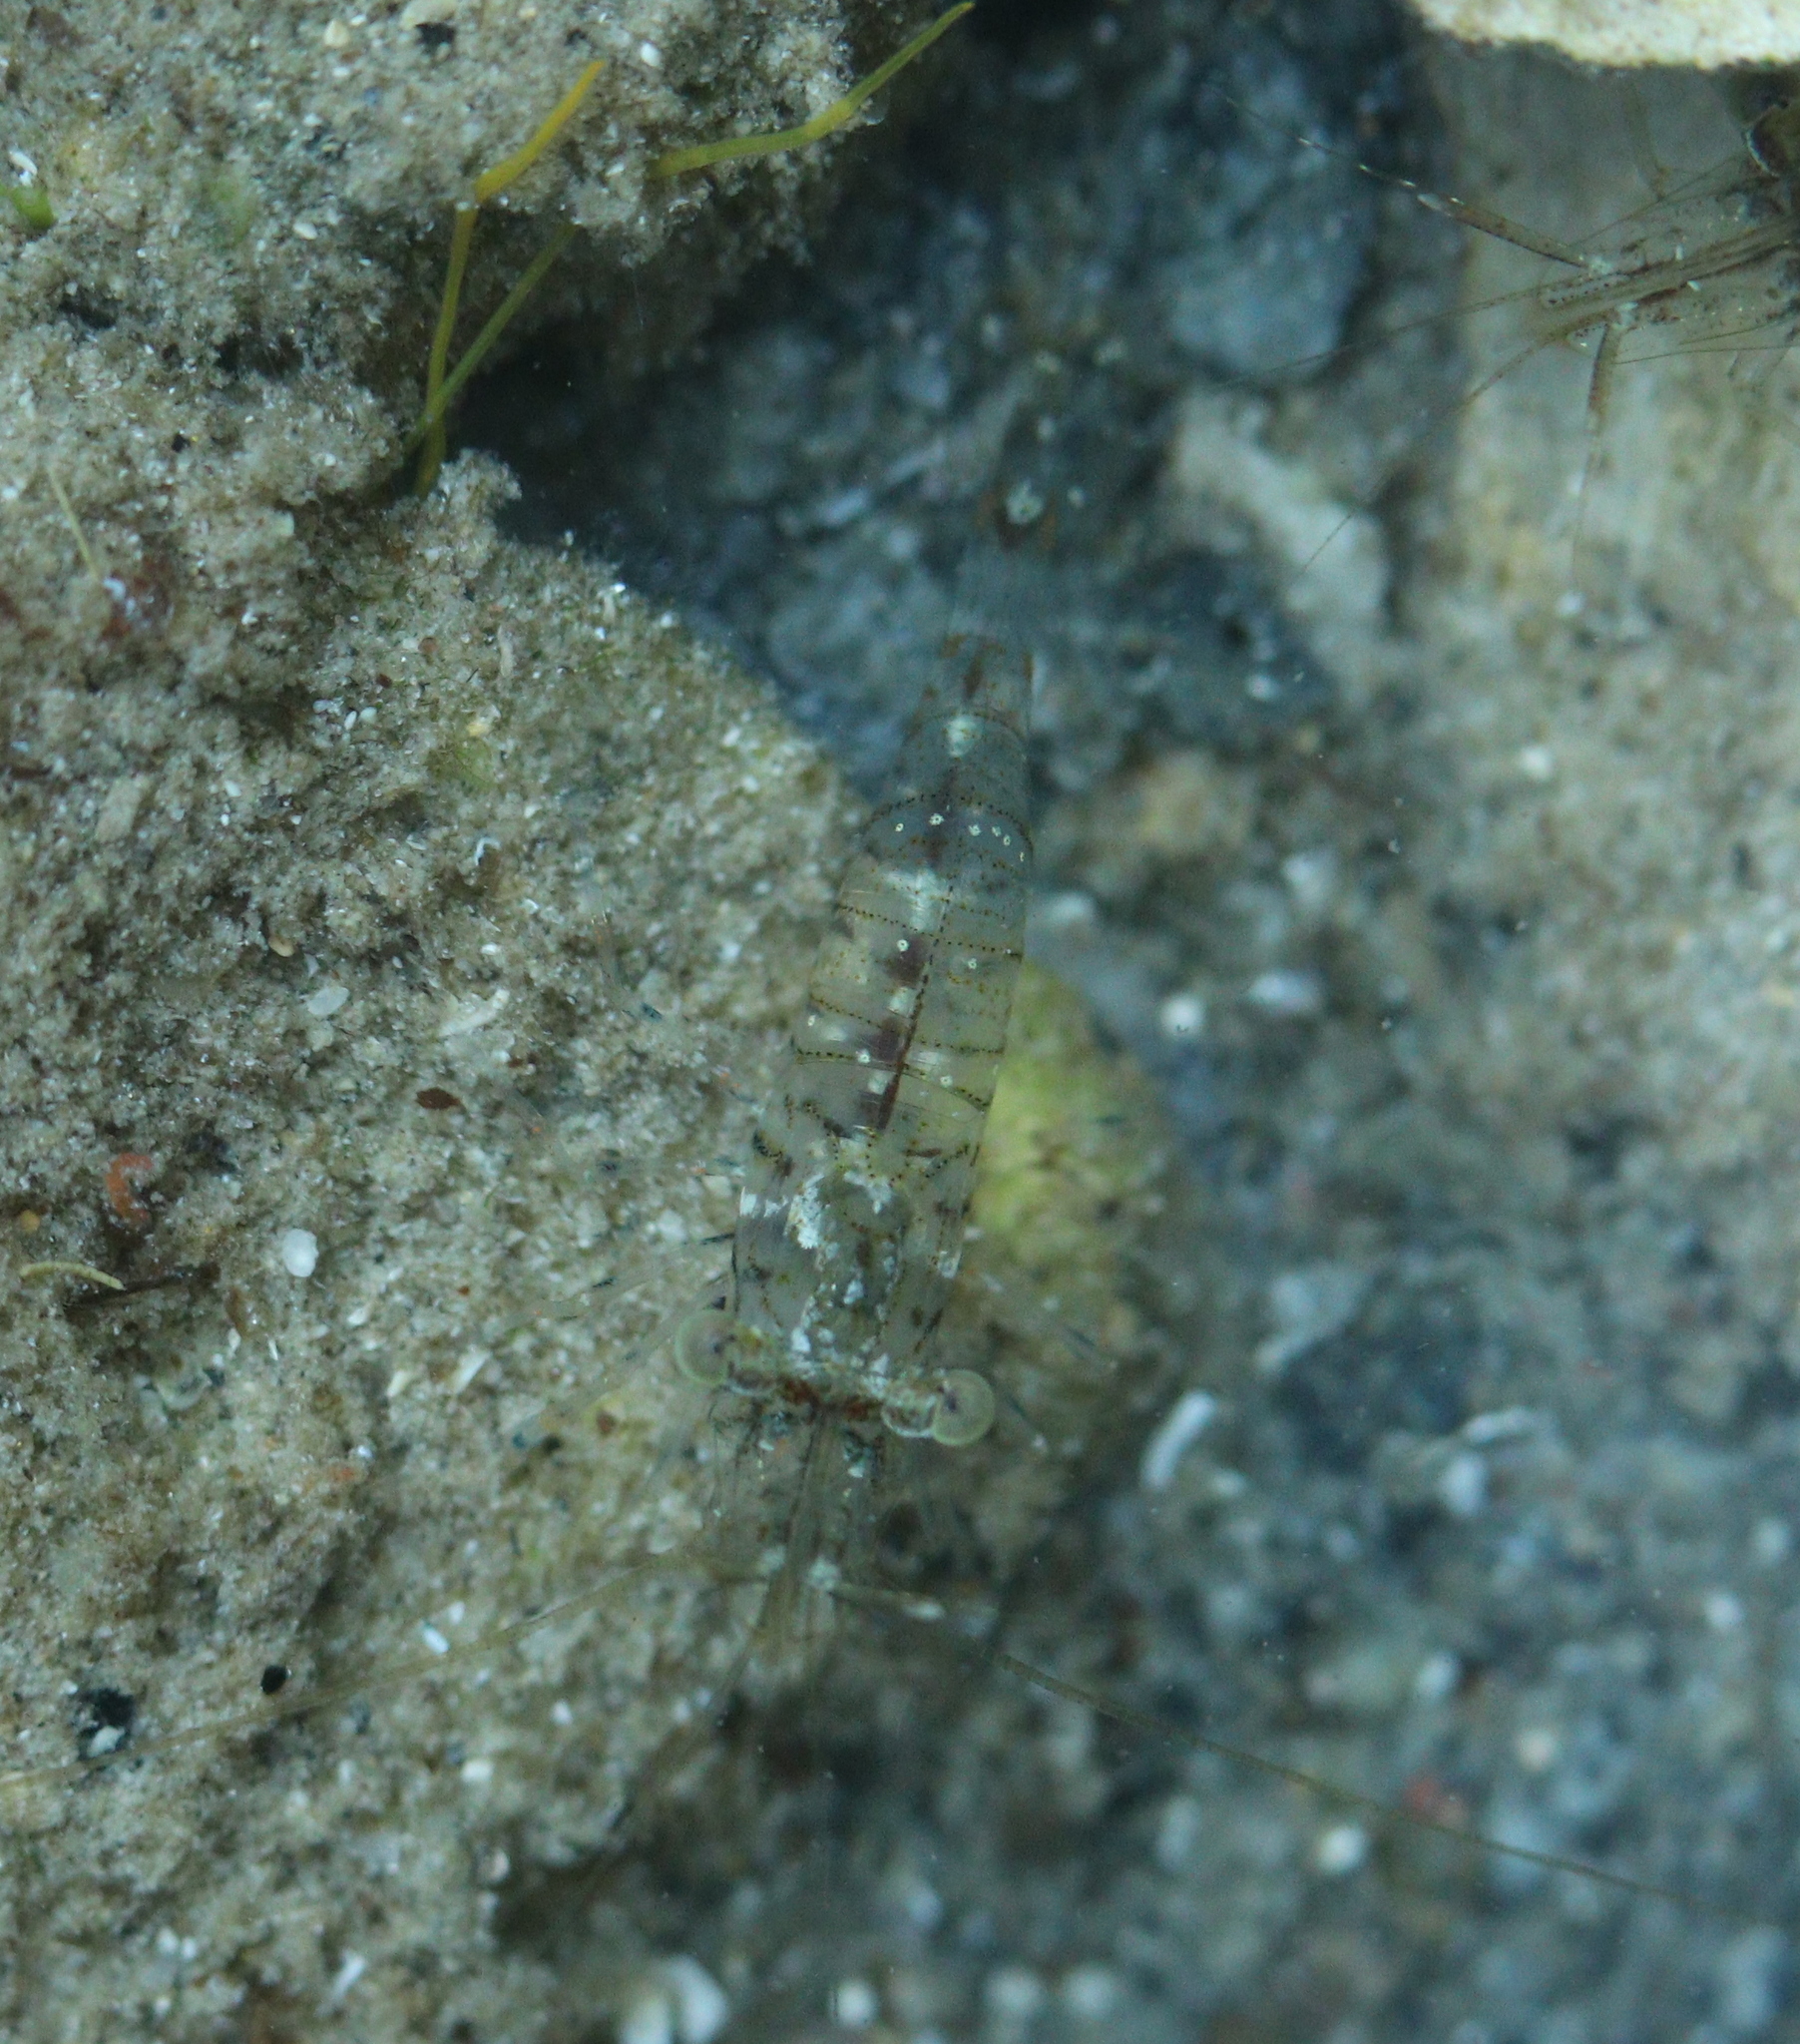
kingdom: Animalia
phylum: Arthropoda
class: Malacostraca
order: Decapoda
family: Palaemonidae
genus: Palaemon
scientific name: Palaemon elegans
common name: Grass prawm
